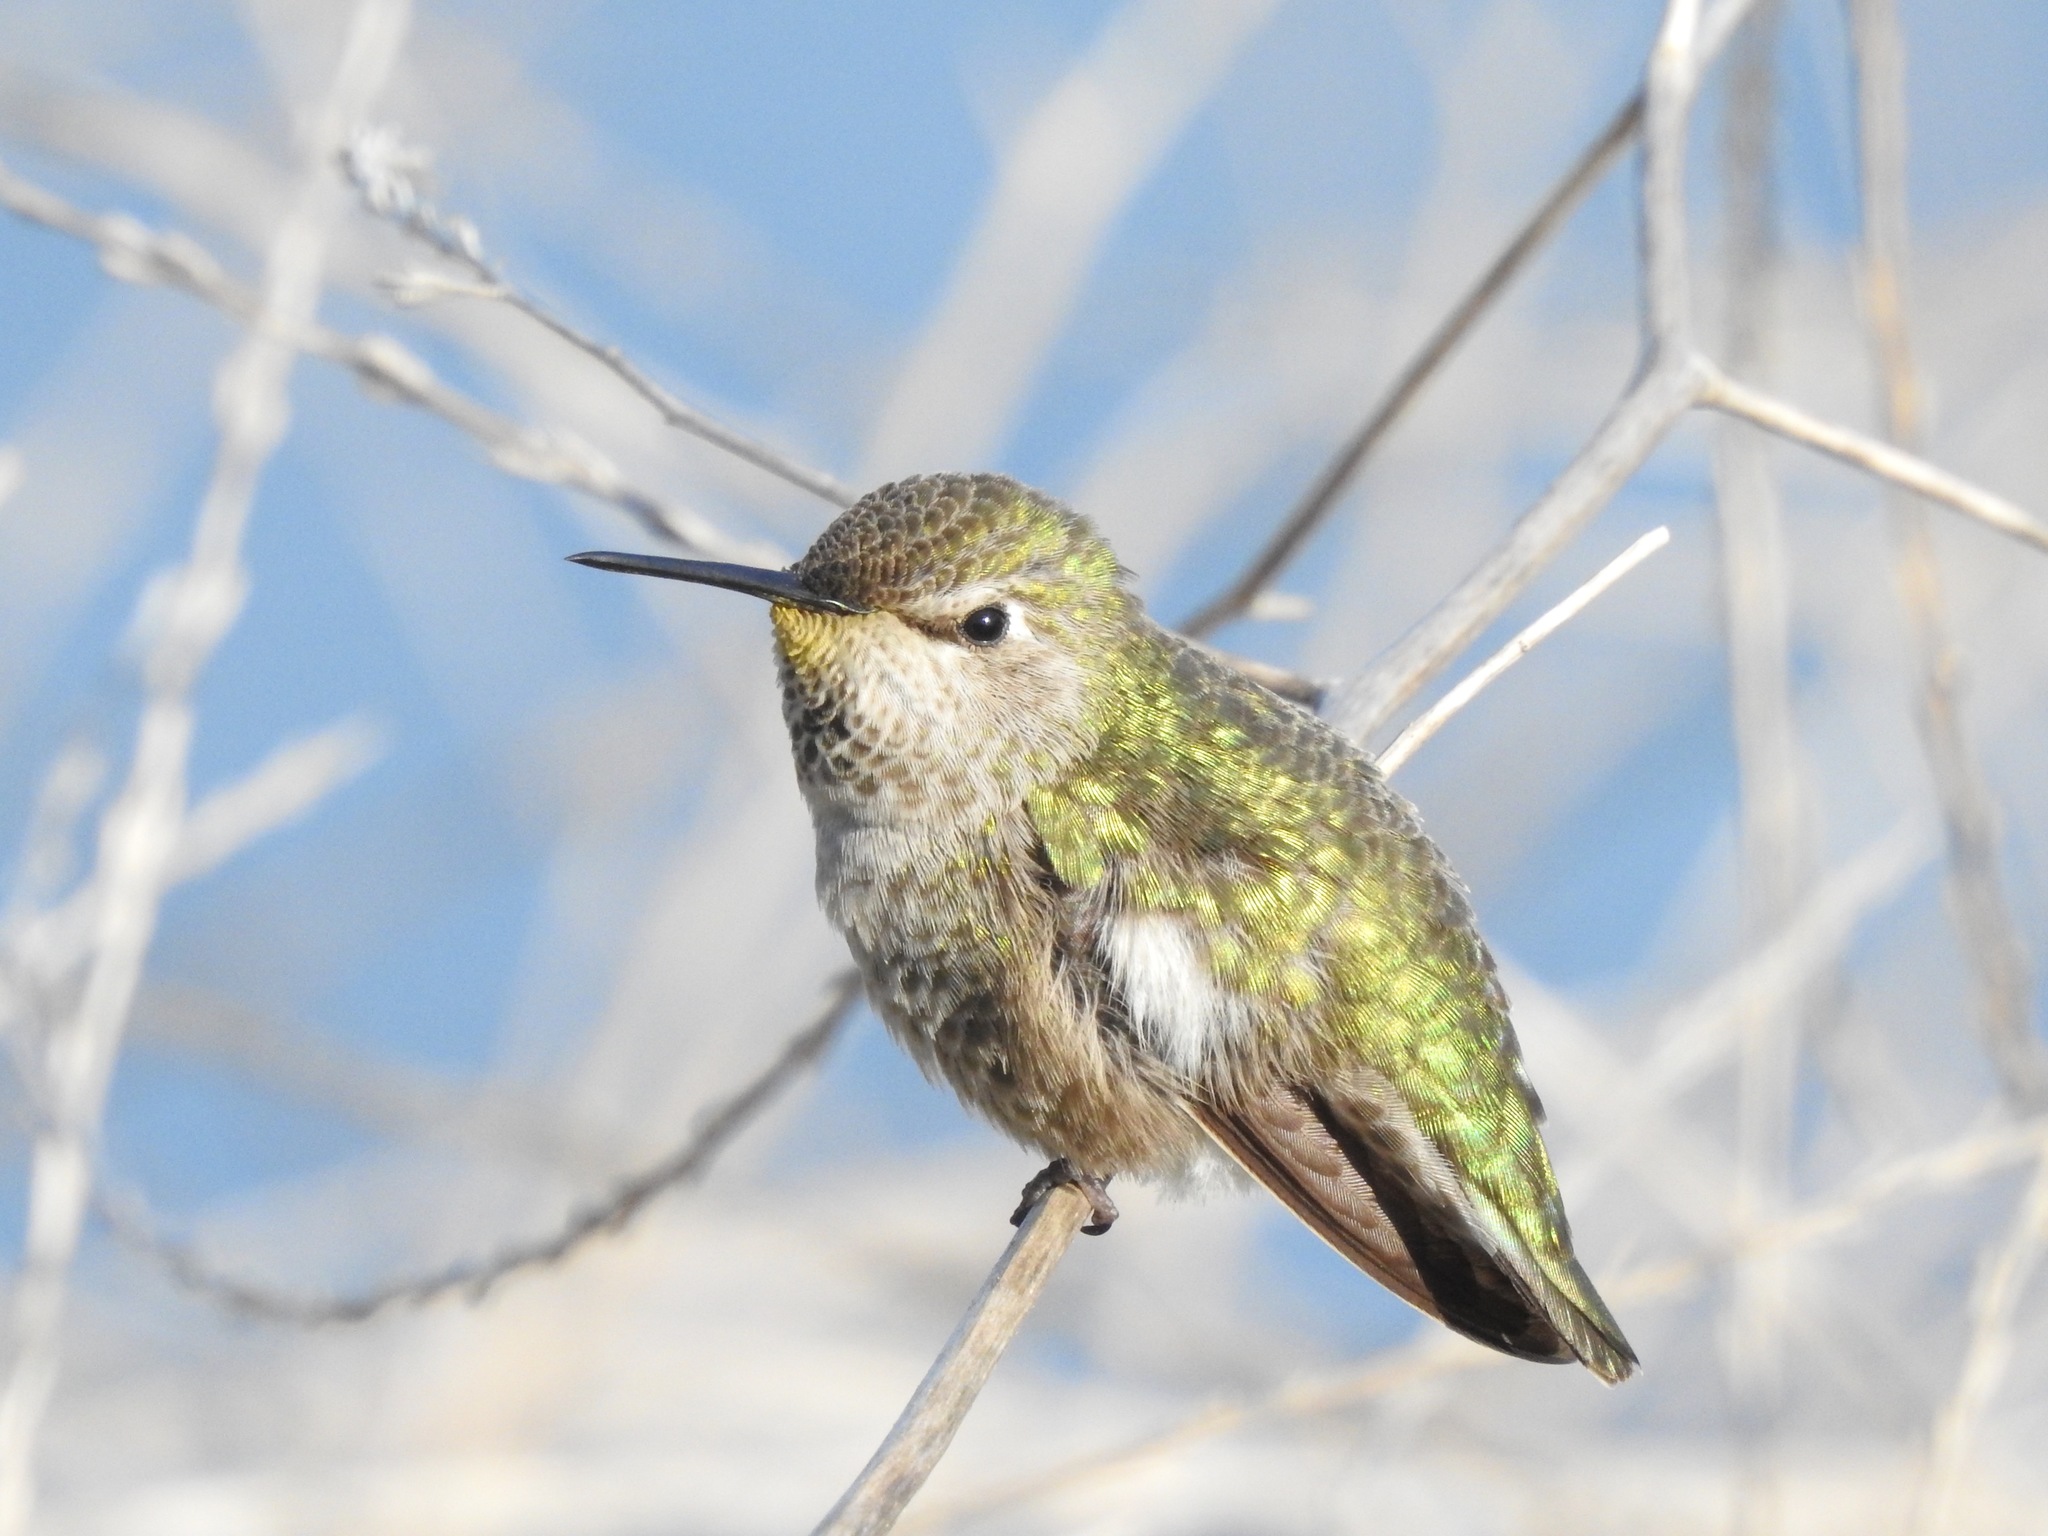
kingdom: Animalia
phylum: Chordata
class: Aves
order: Apodiformes
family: Trochilidae
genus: Calypte
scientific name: Calypte anna
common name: Anna's hummingbird
